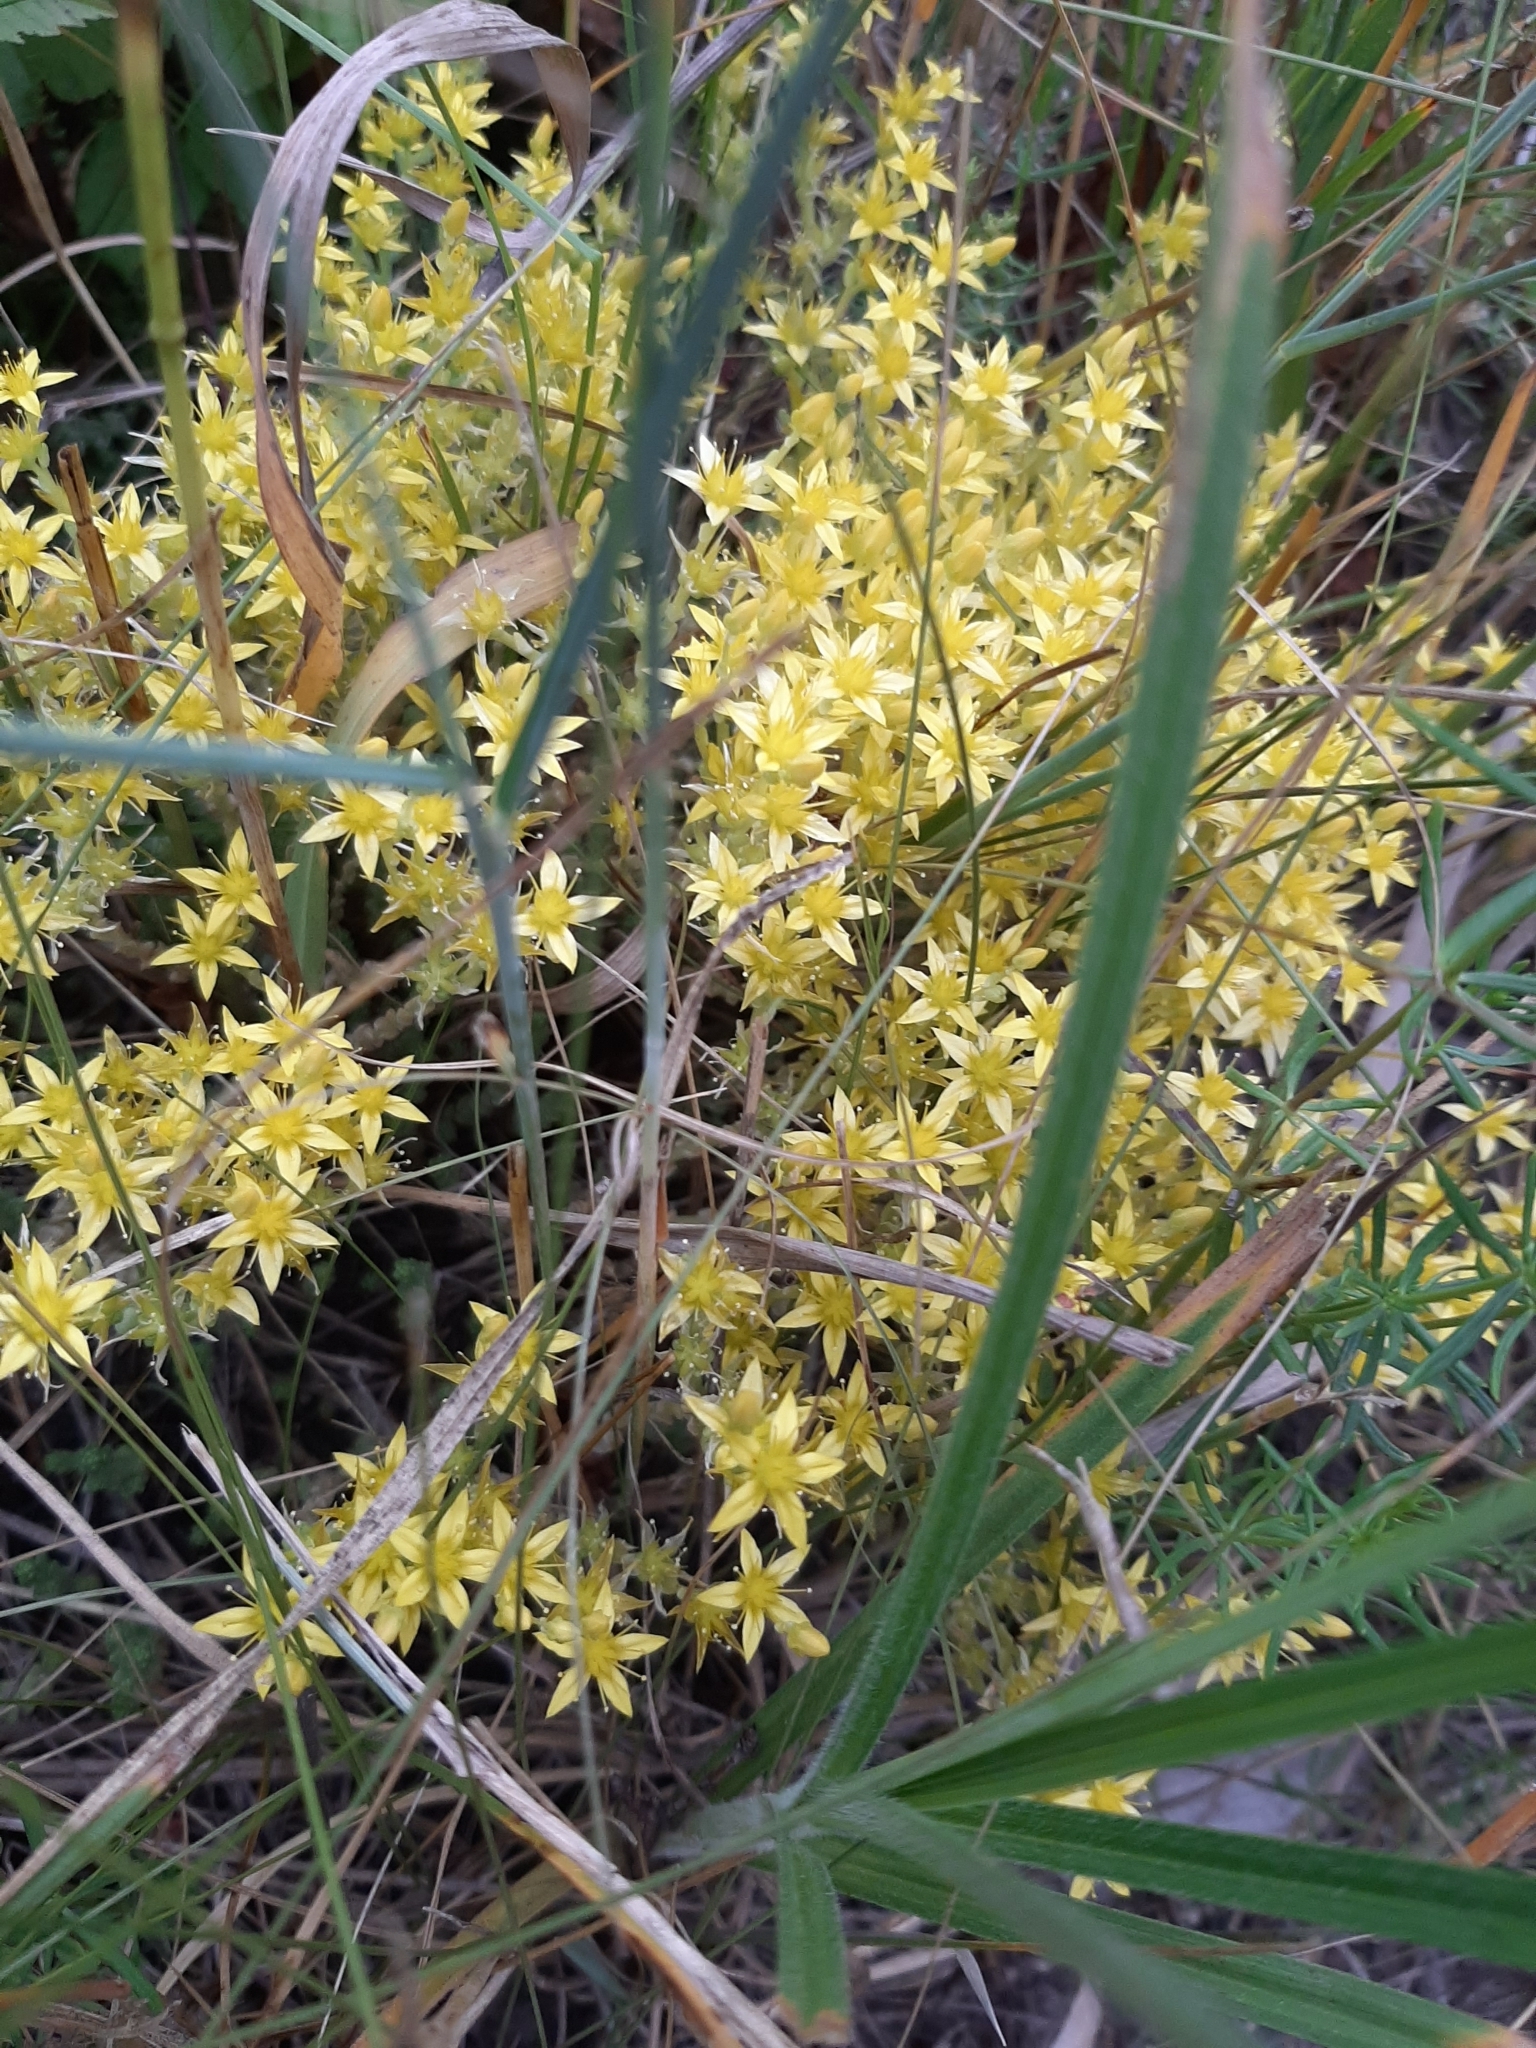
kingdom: Plantae
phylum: Tracheophyta
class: Magnoliopsida
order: Saxifragales
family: Crassulaceae
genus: Sedum
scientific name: Sedum acre
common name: Biting stonecrop
